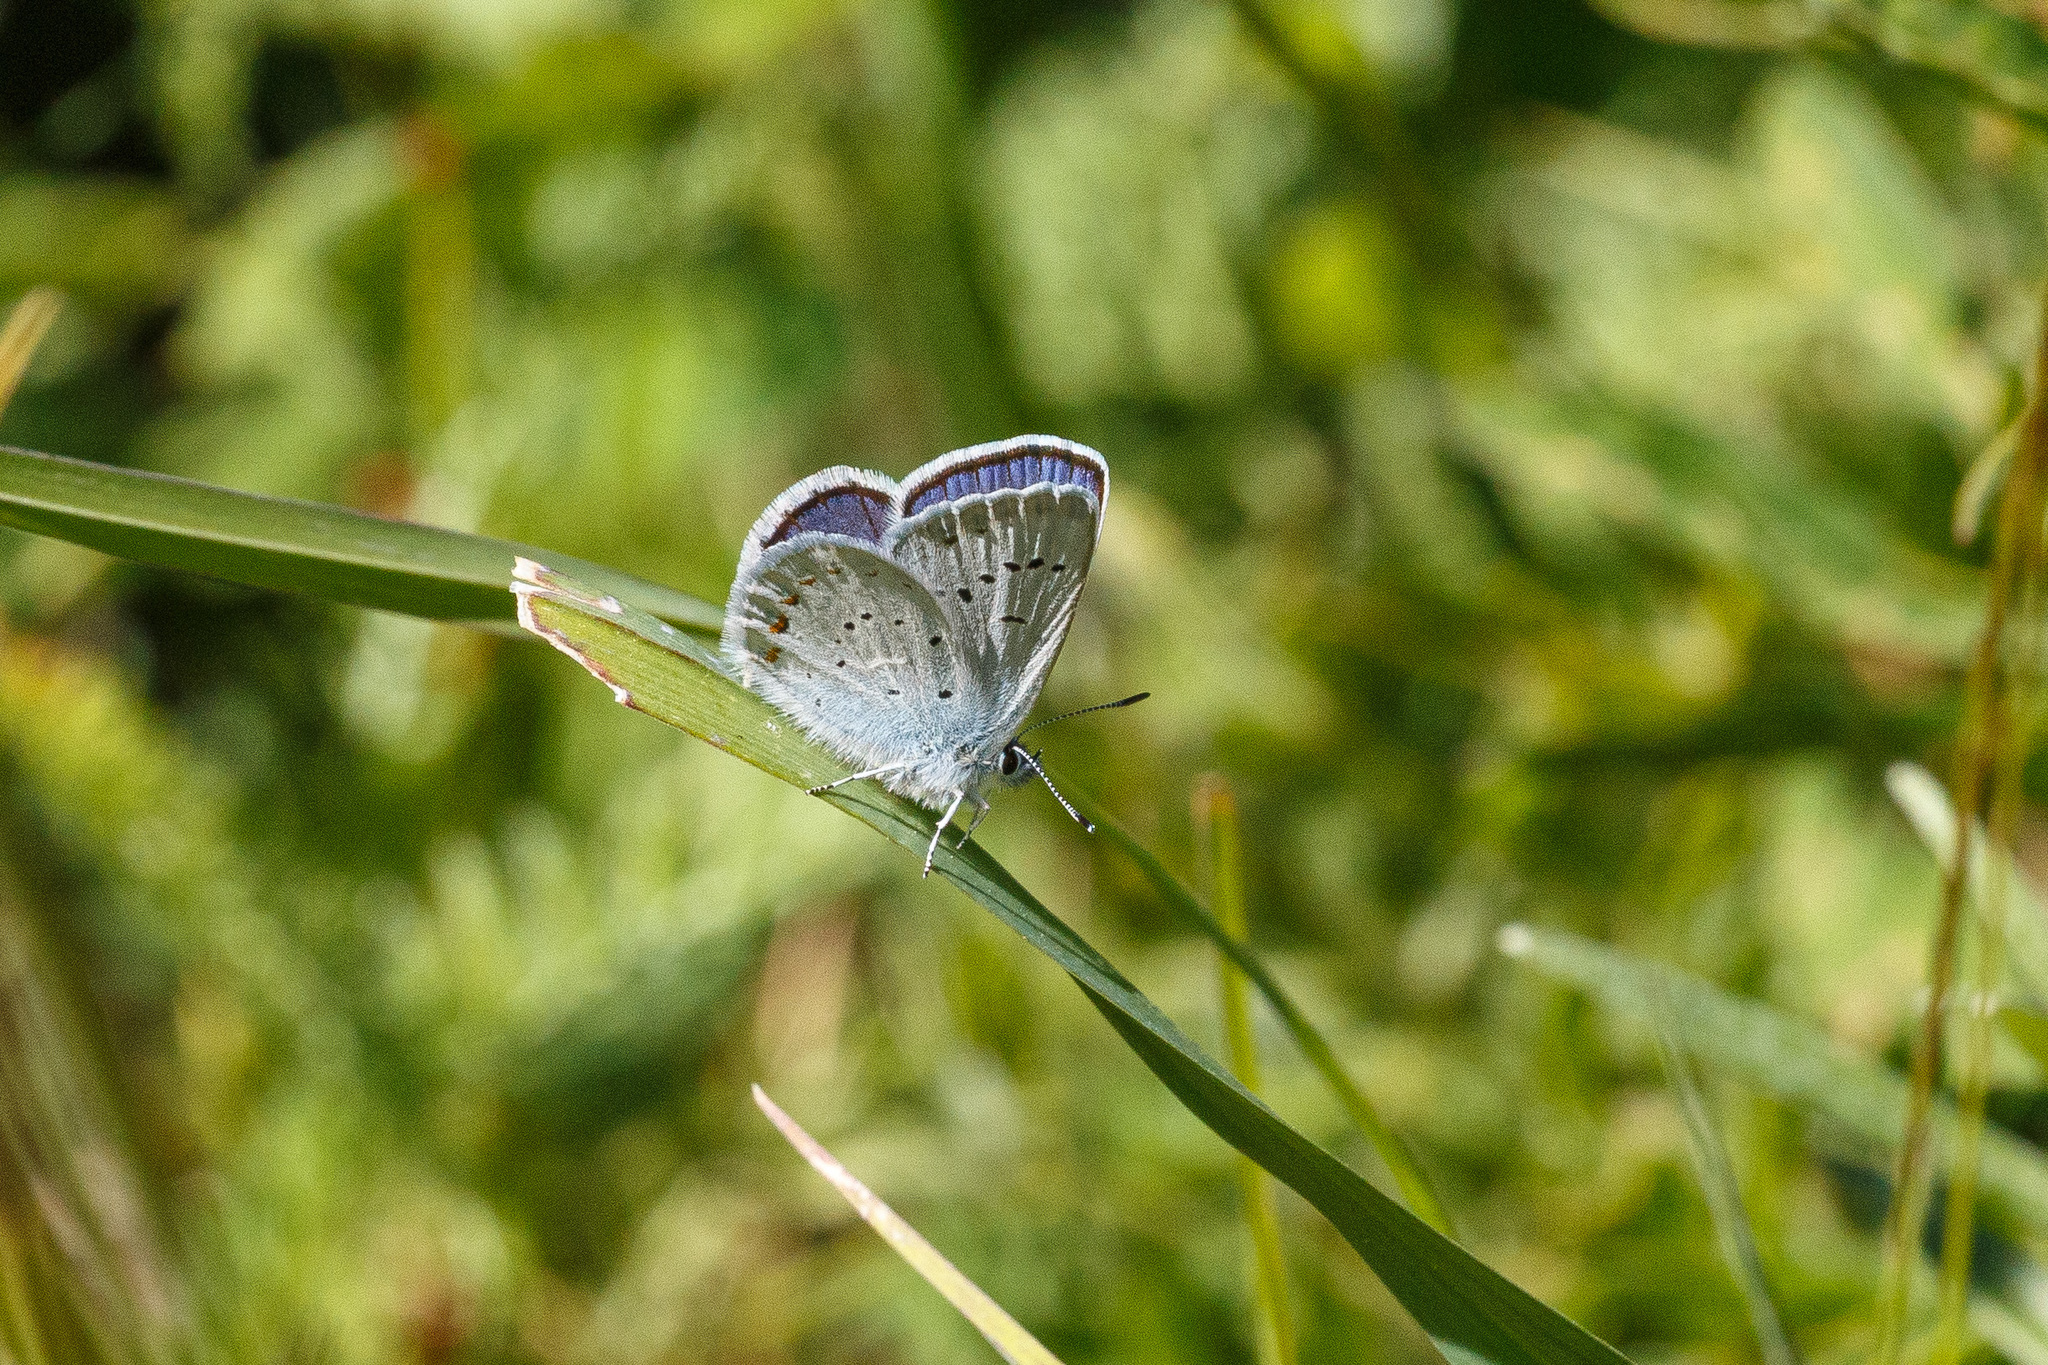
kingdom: Animalia
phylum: Arthropoda
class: Insecta
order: Lepidoptera
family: Lycaenidae
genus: Lycaeides
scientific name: Lycaeides anna
